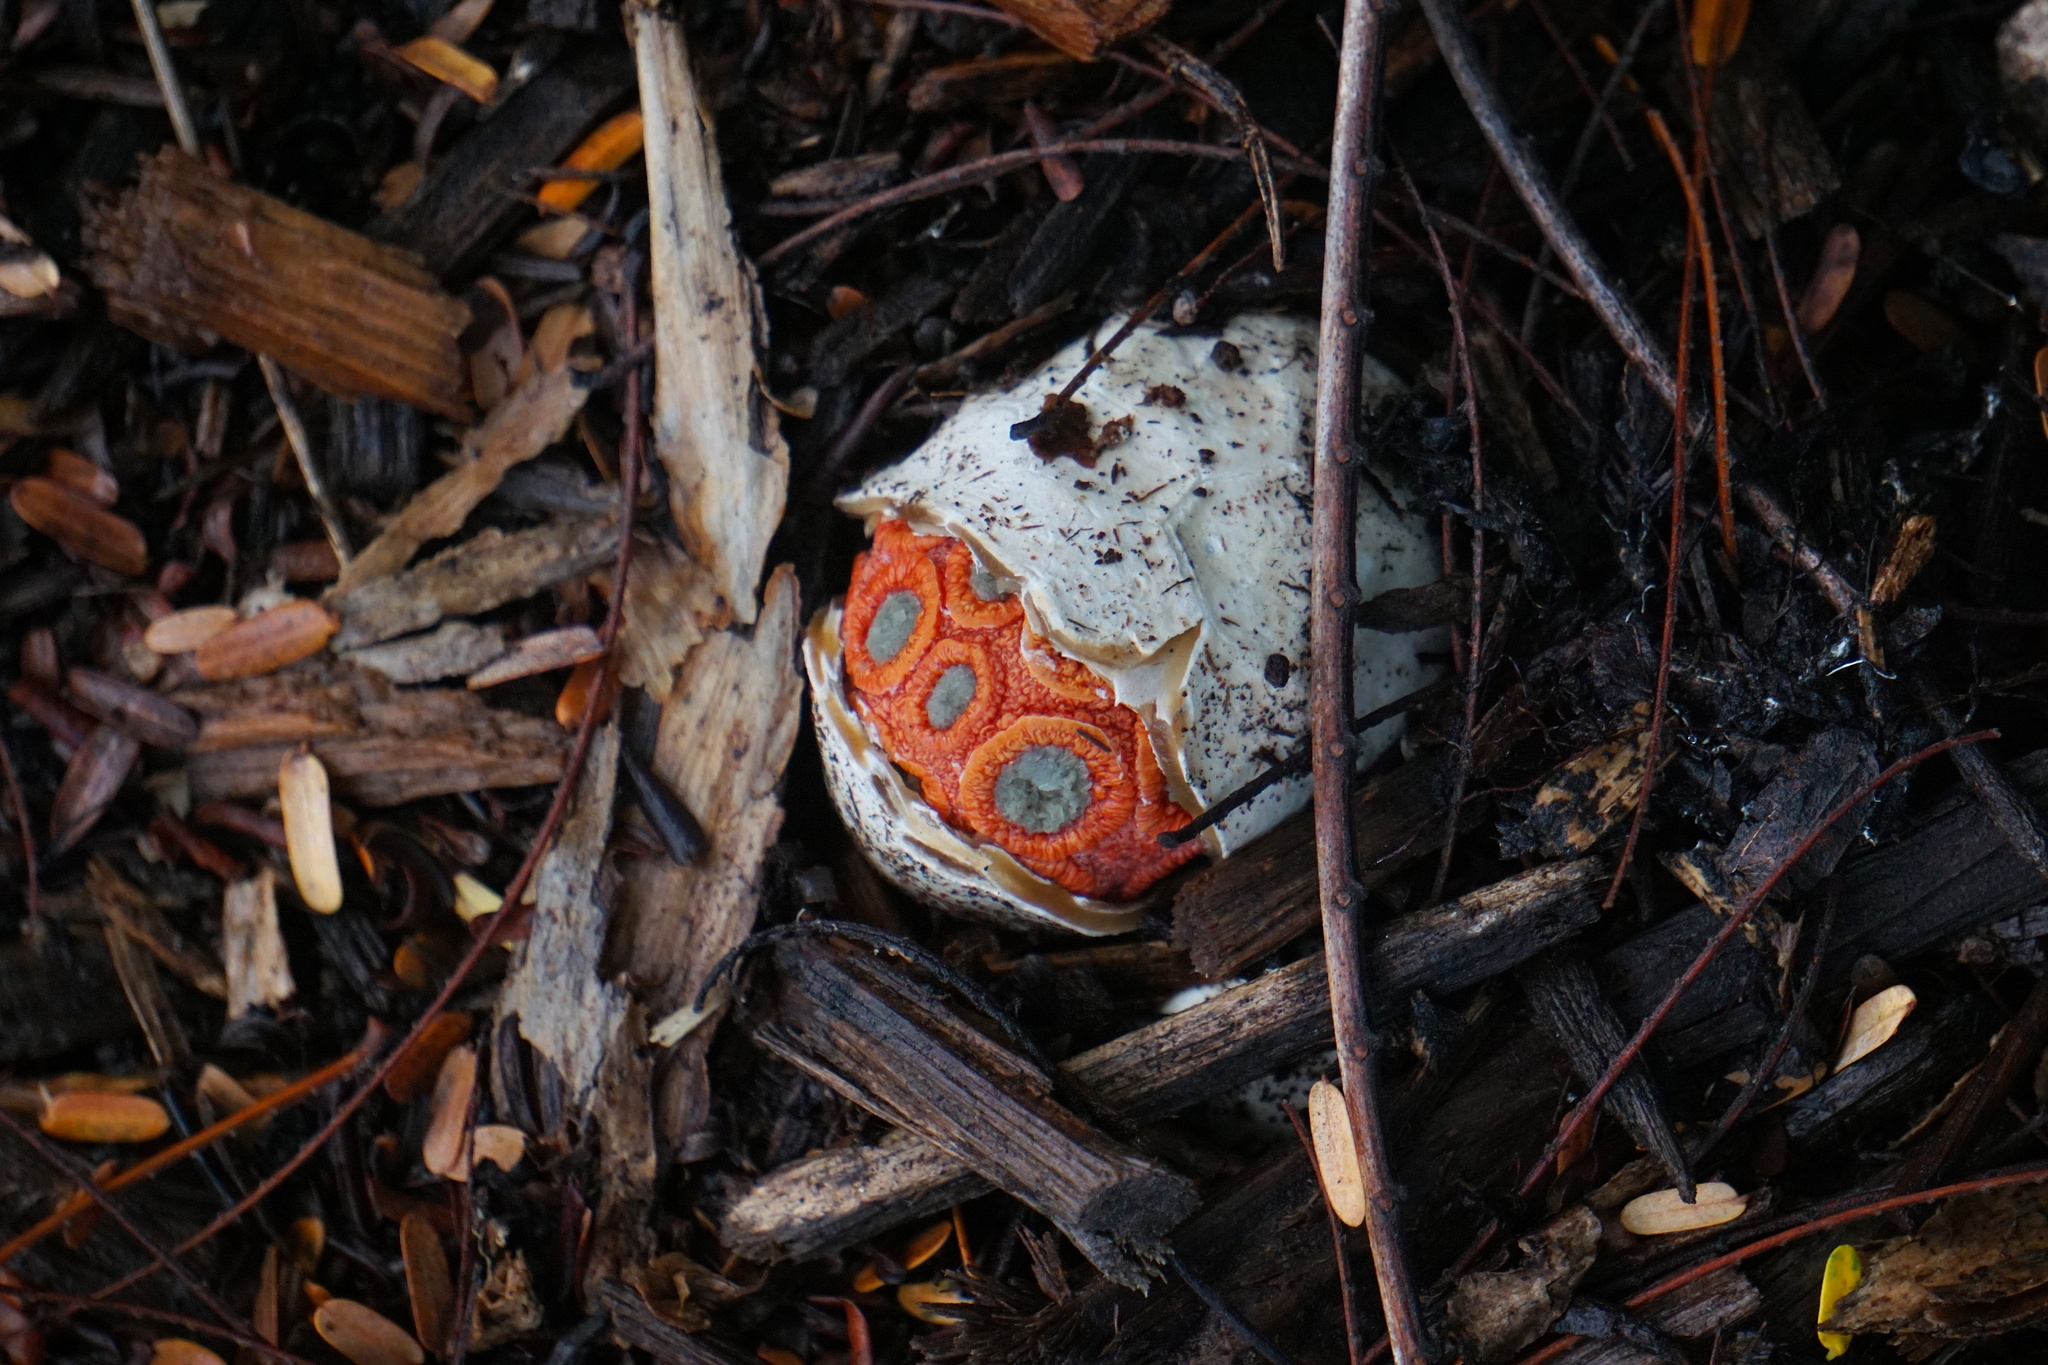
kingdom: Fungi
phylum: Basidiomycota
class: Agaricomycetes
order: Phallales
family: Phallaceae
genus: Clathrus
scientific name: Clathrus crispatus
